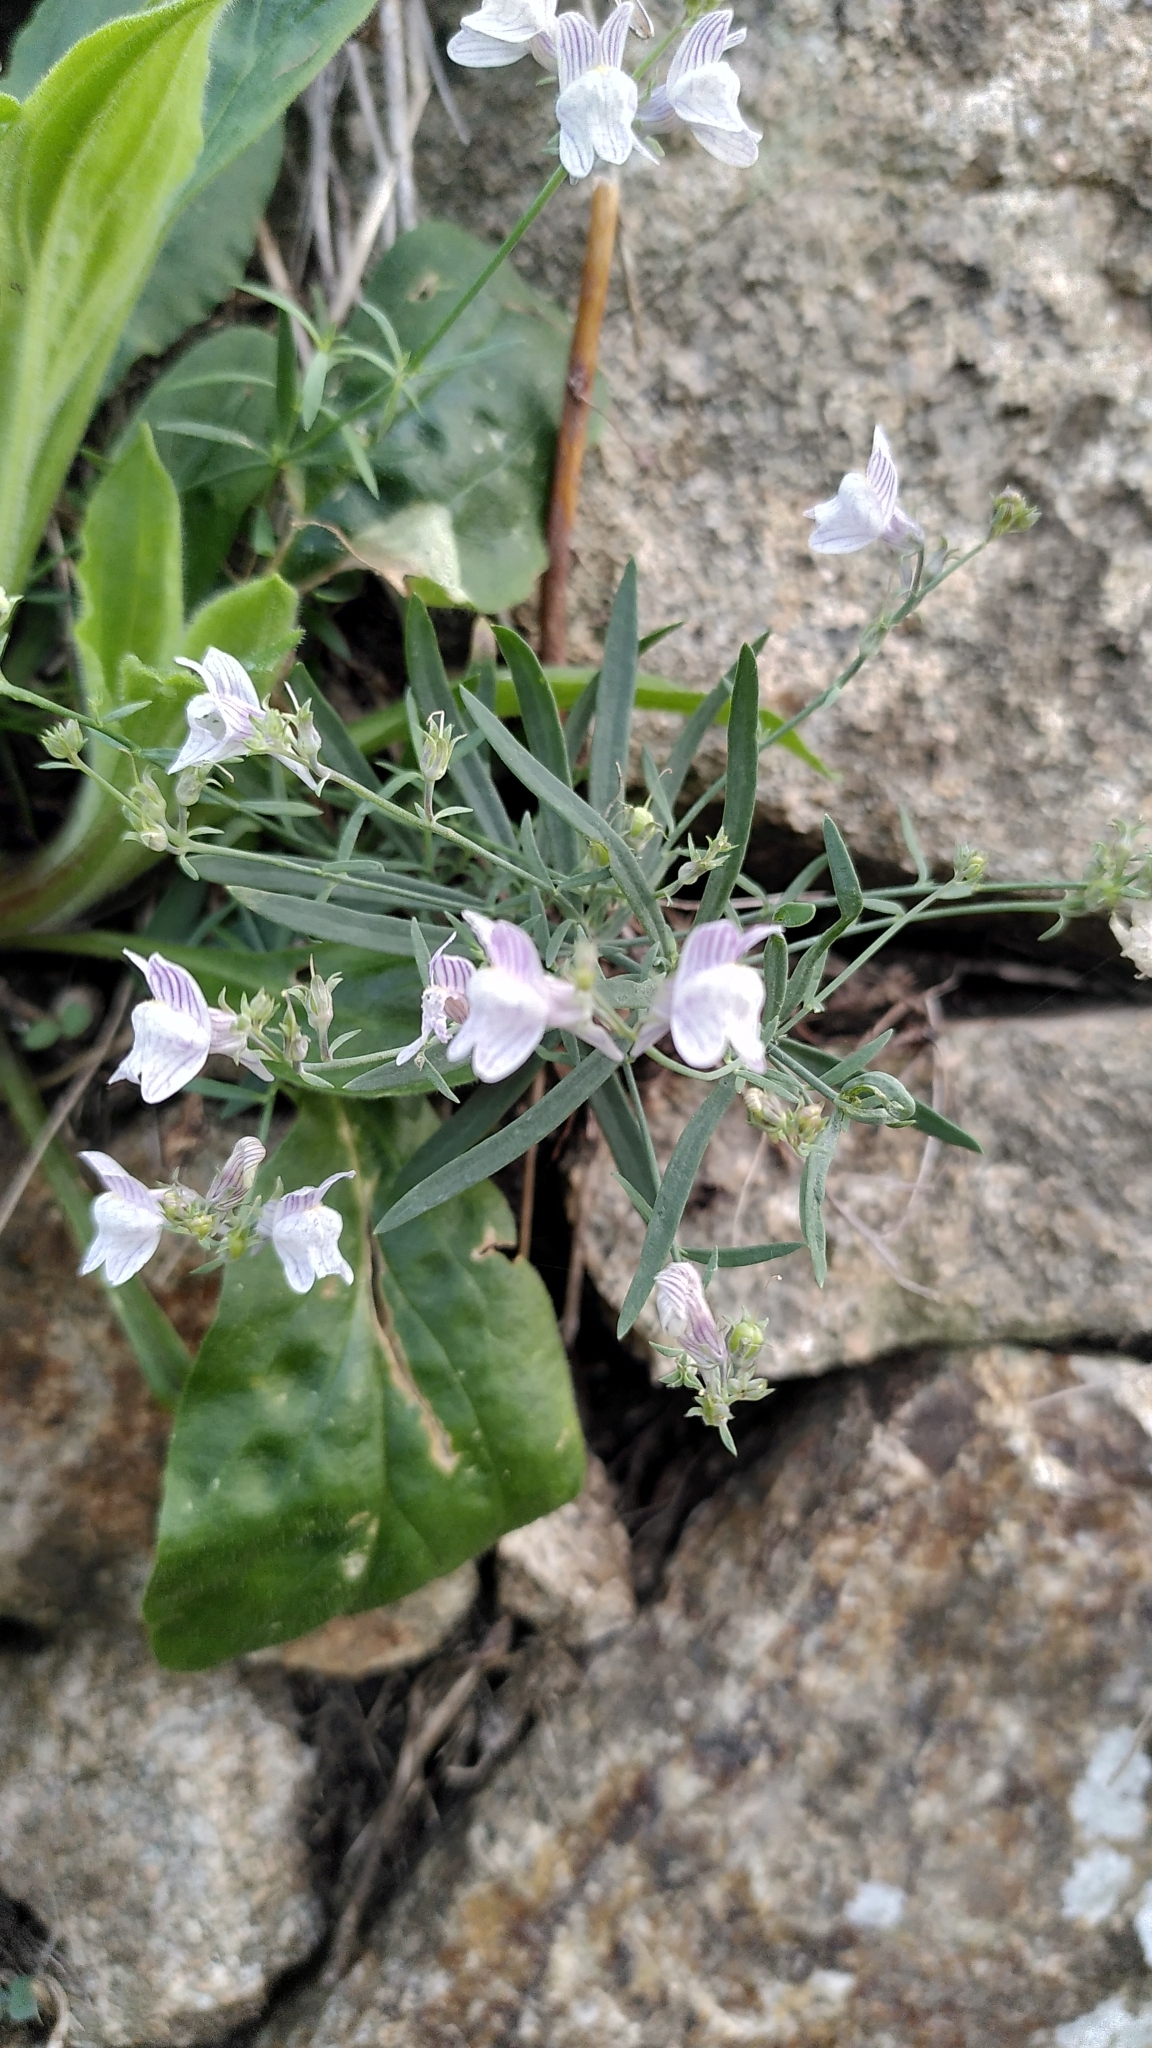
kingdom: Plantae
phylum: Tracheophyta
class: Magnoliopsida
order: Lamiales
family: Plantaginaceae
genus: Linaria
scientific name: Linaria repens
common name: Pale toadflax
